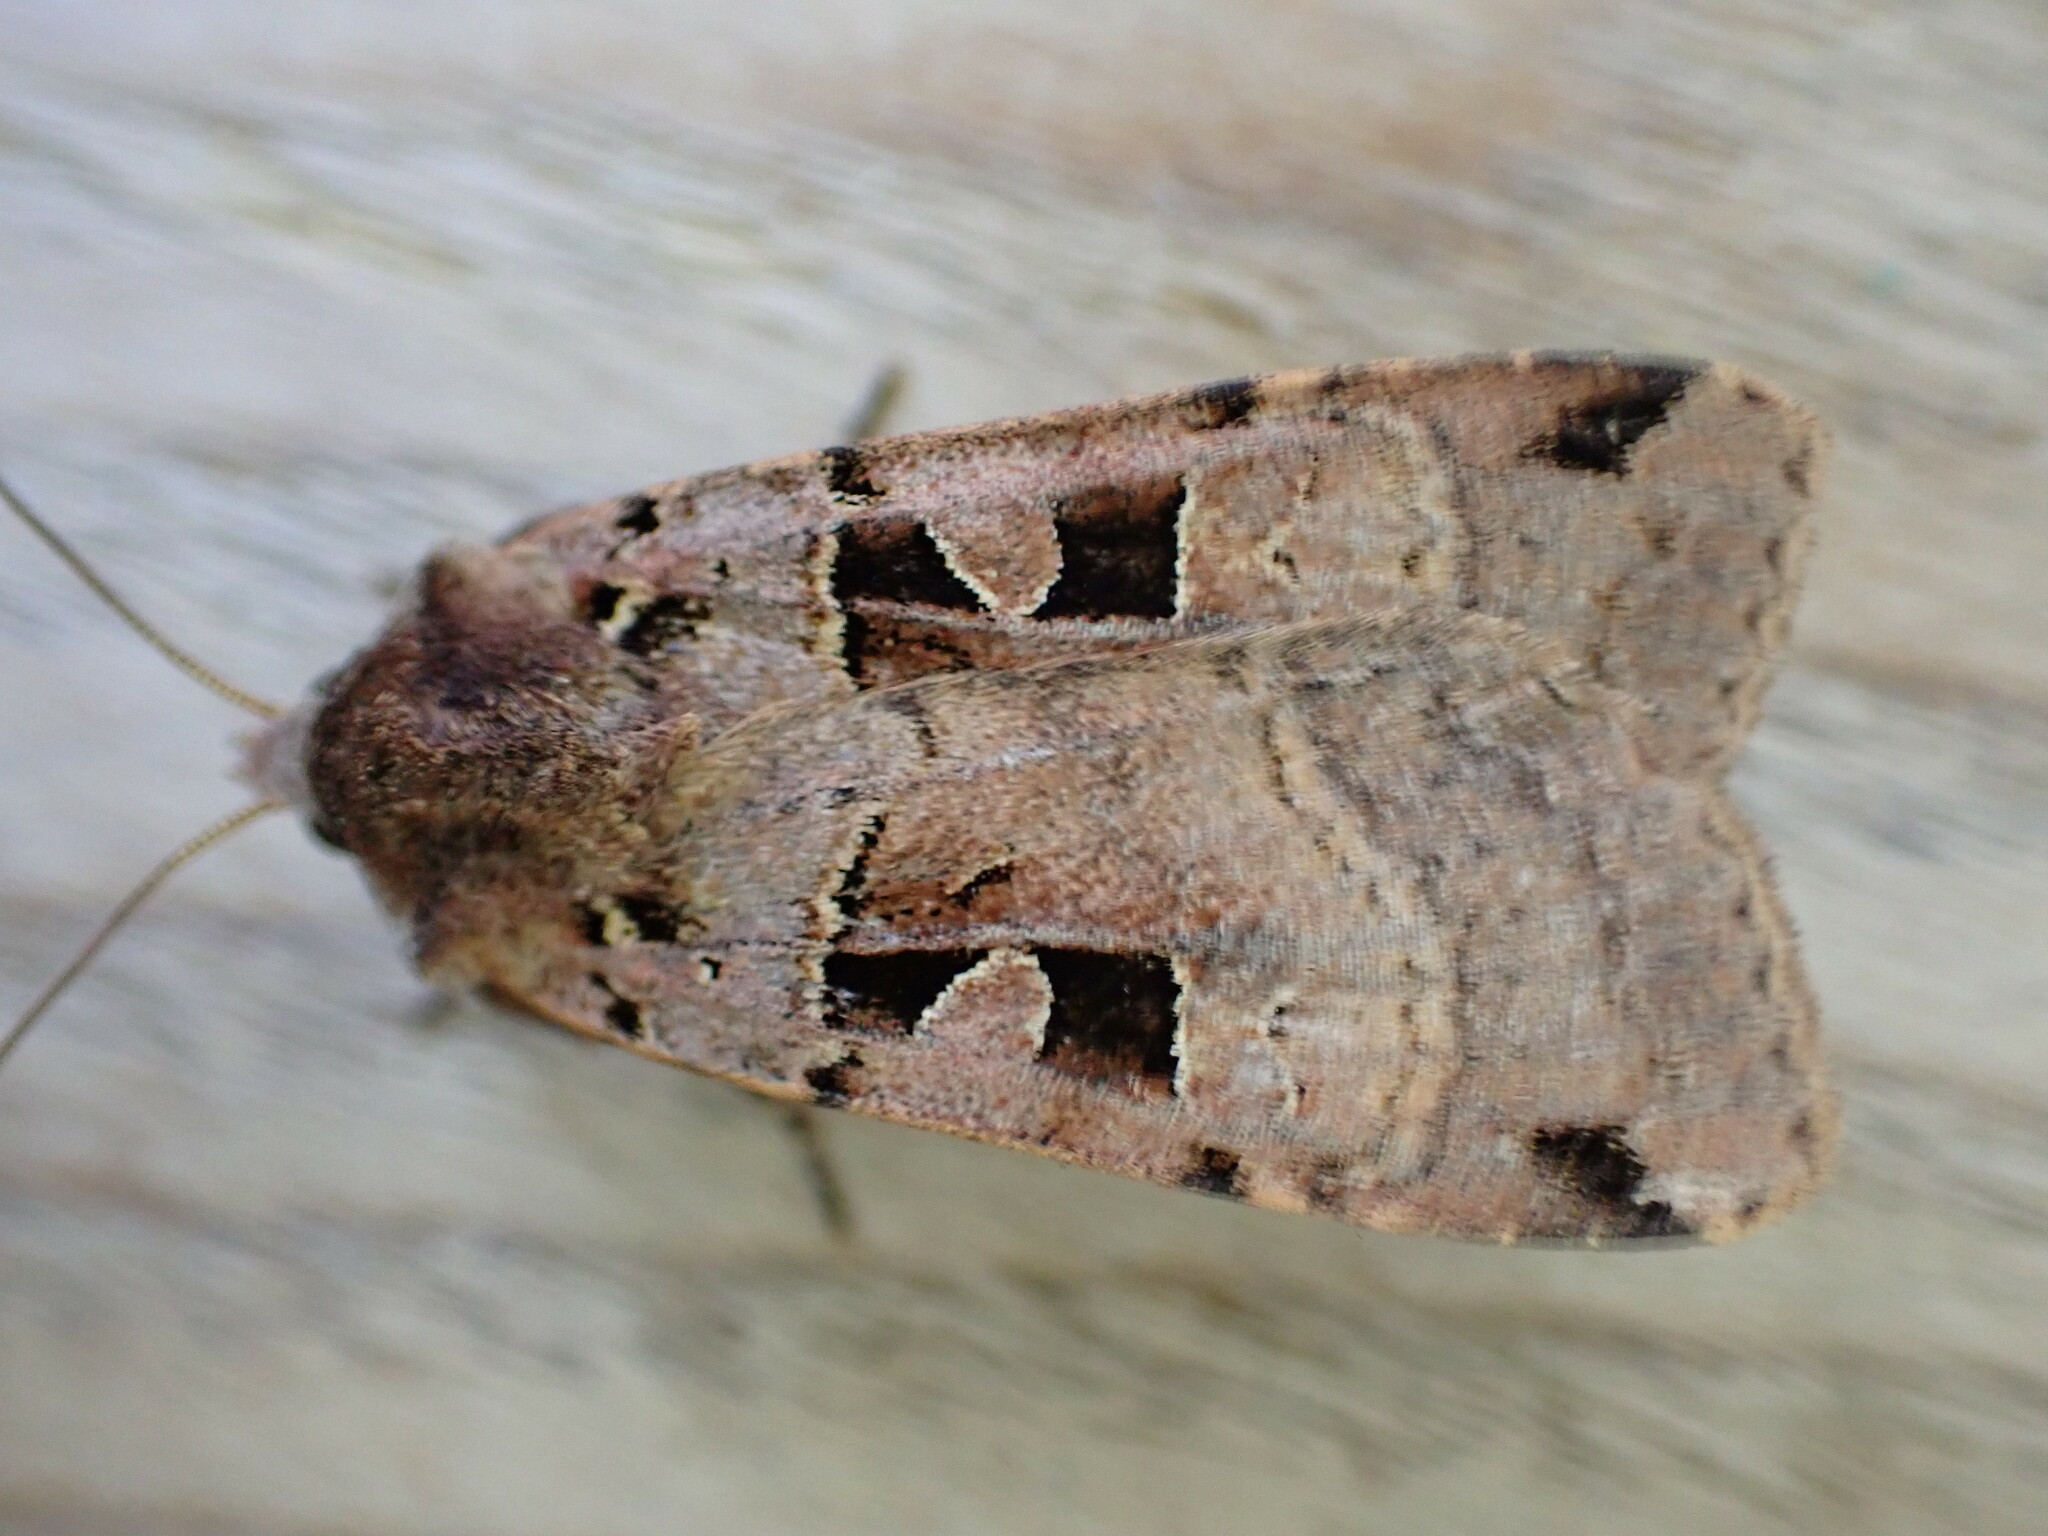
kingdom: Animalia
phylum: Arthropoda
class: Insecta
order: Lepidoptera
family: Noctuidae
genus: Xestia
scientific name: Xestia triangulum
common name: Double square-spot
